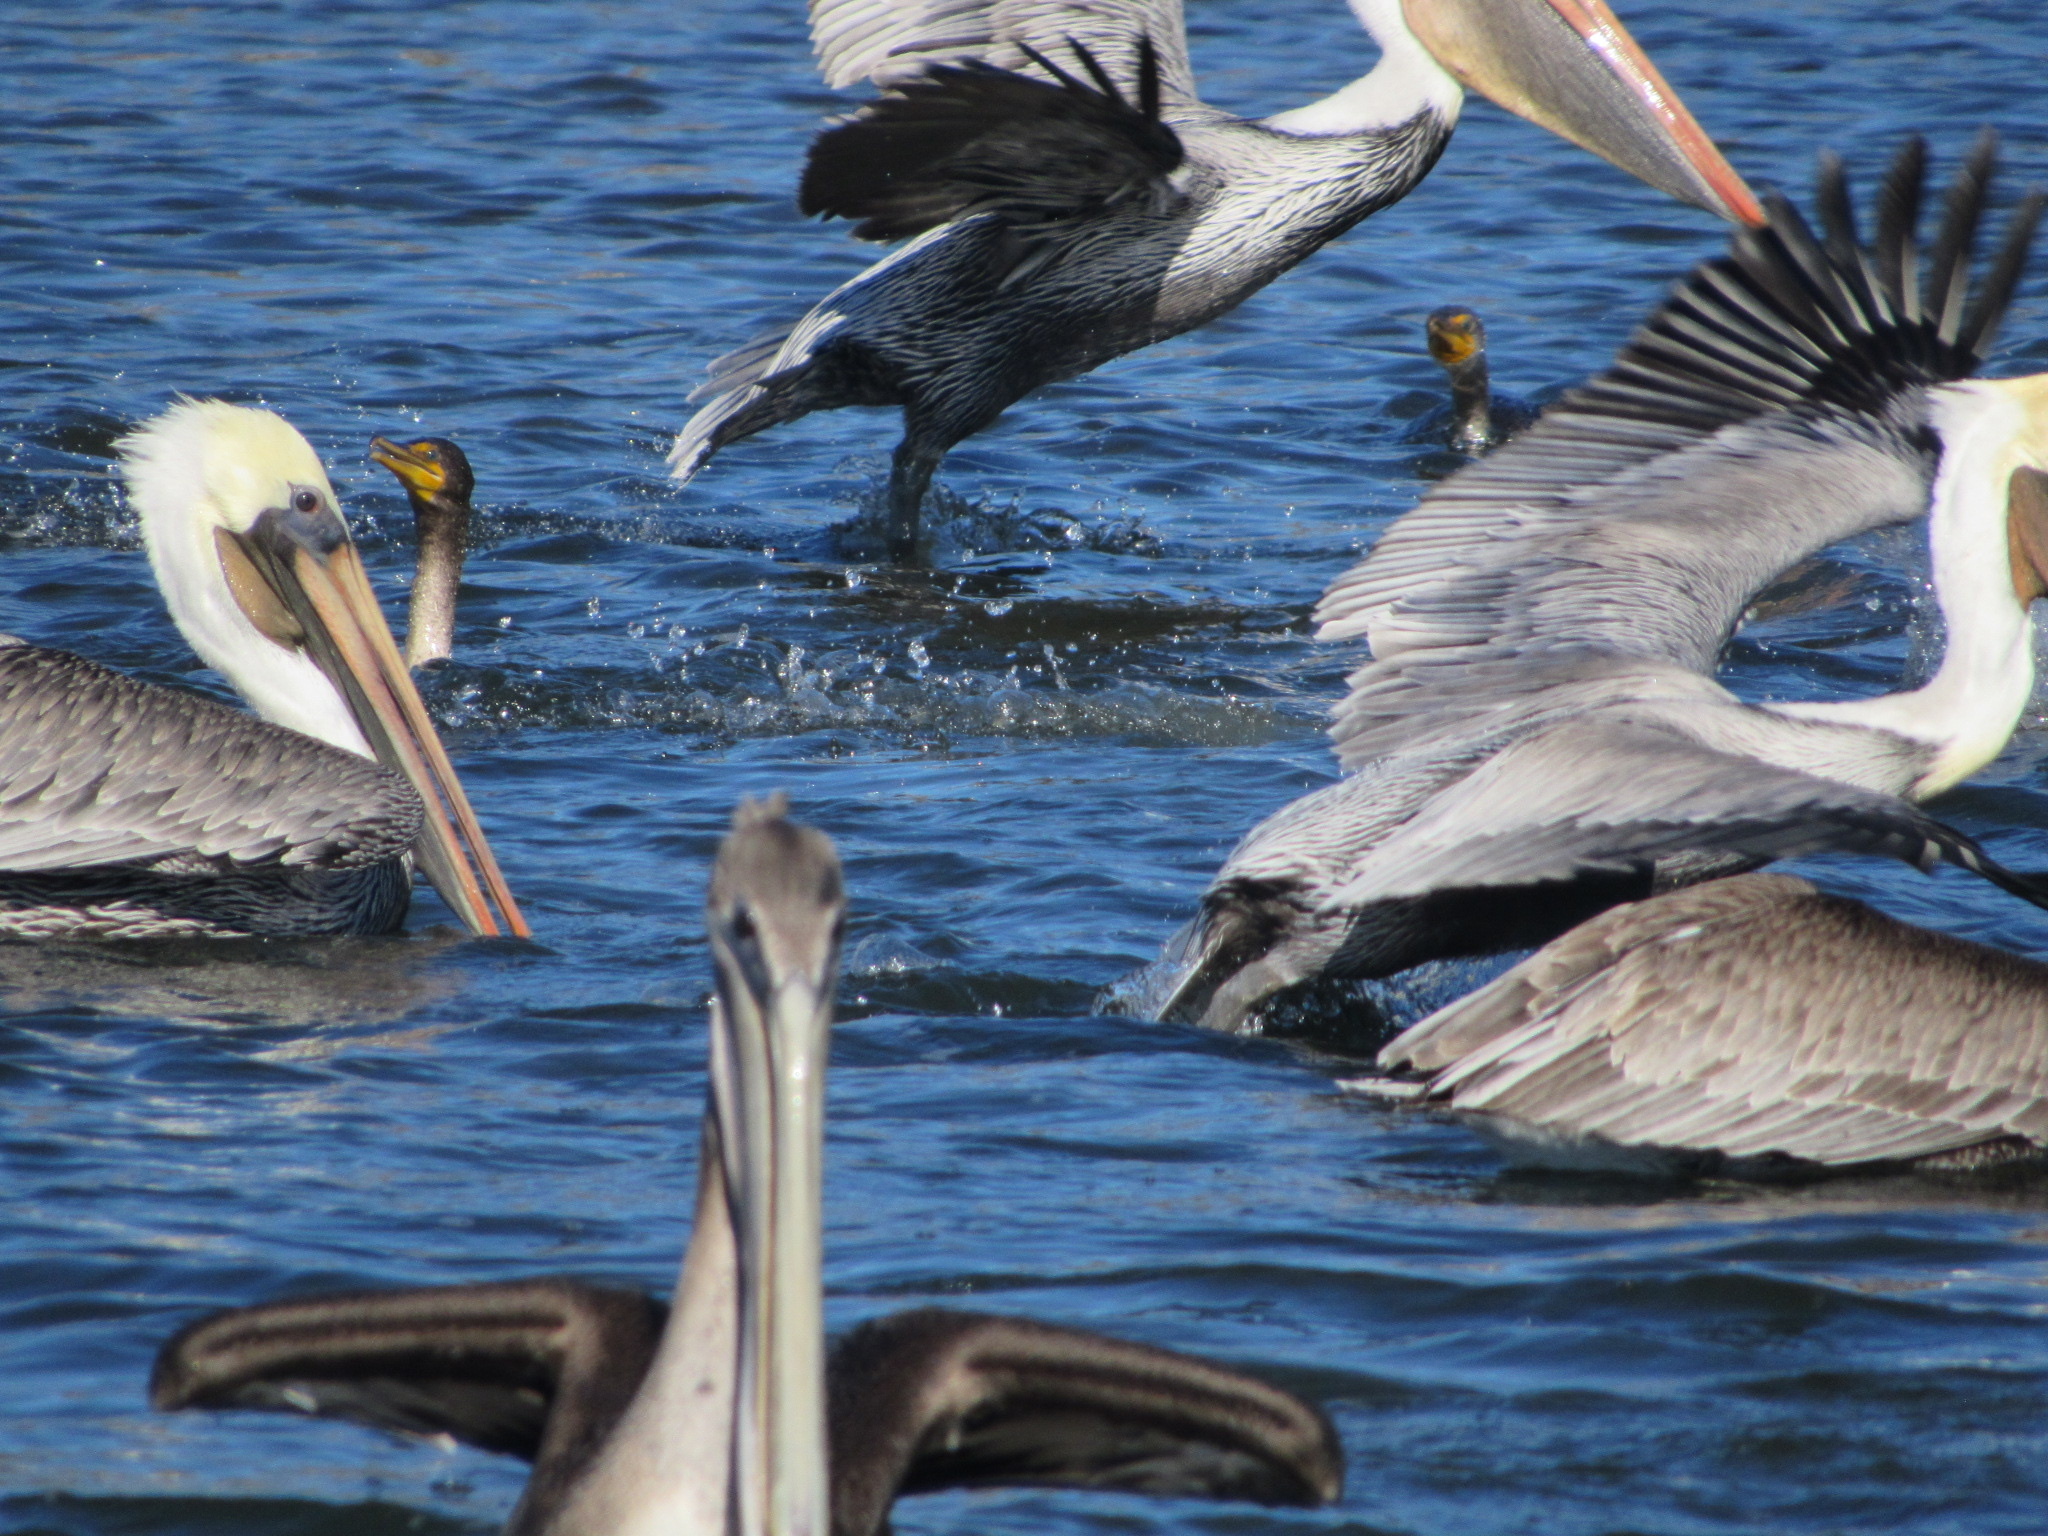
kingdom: Animalia
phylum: Chordata
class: Aves
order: Pelecaniformes
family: Pelecanidae
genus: Pelecanus
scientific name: Pelecanus occidentalis
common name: Brown pelican
